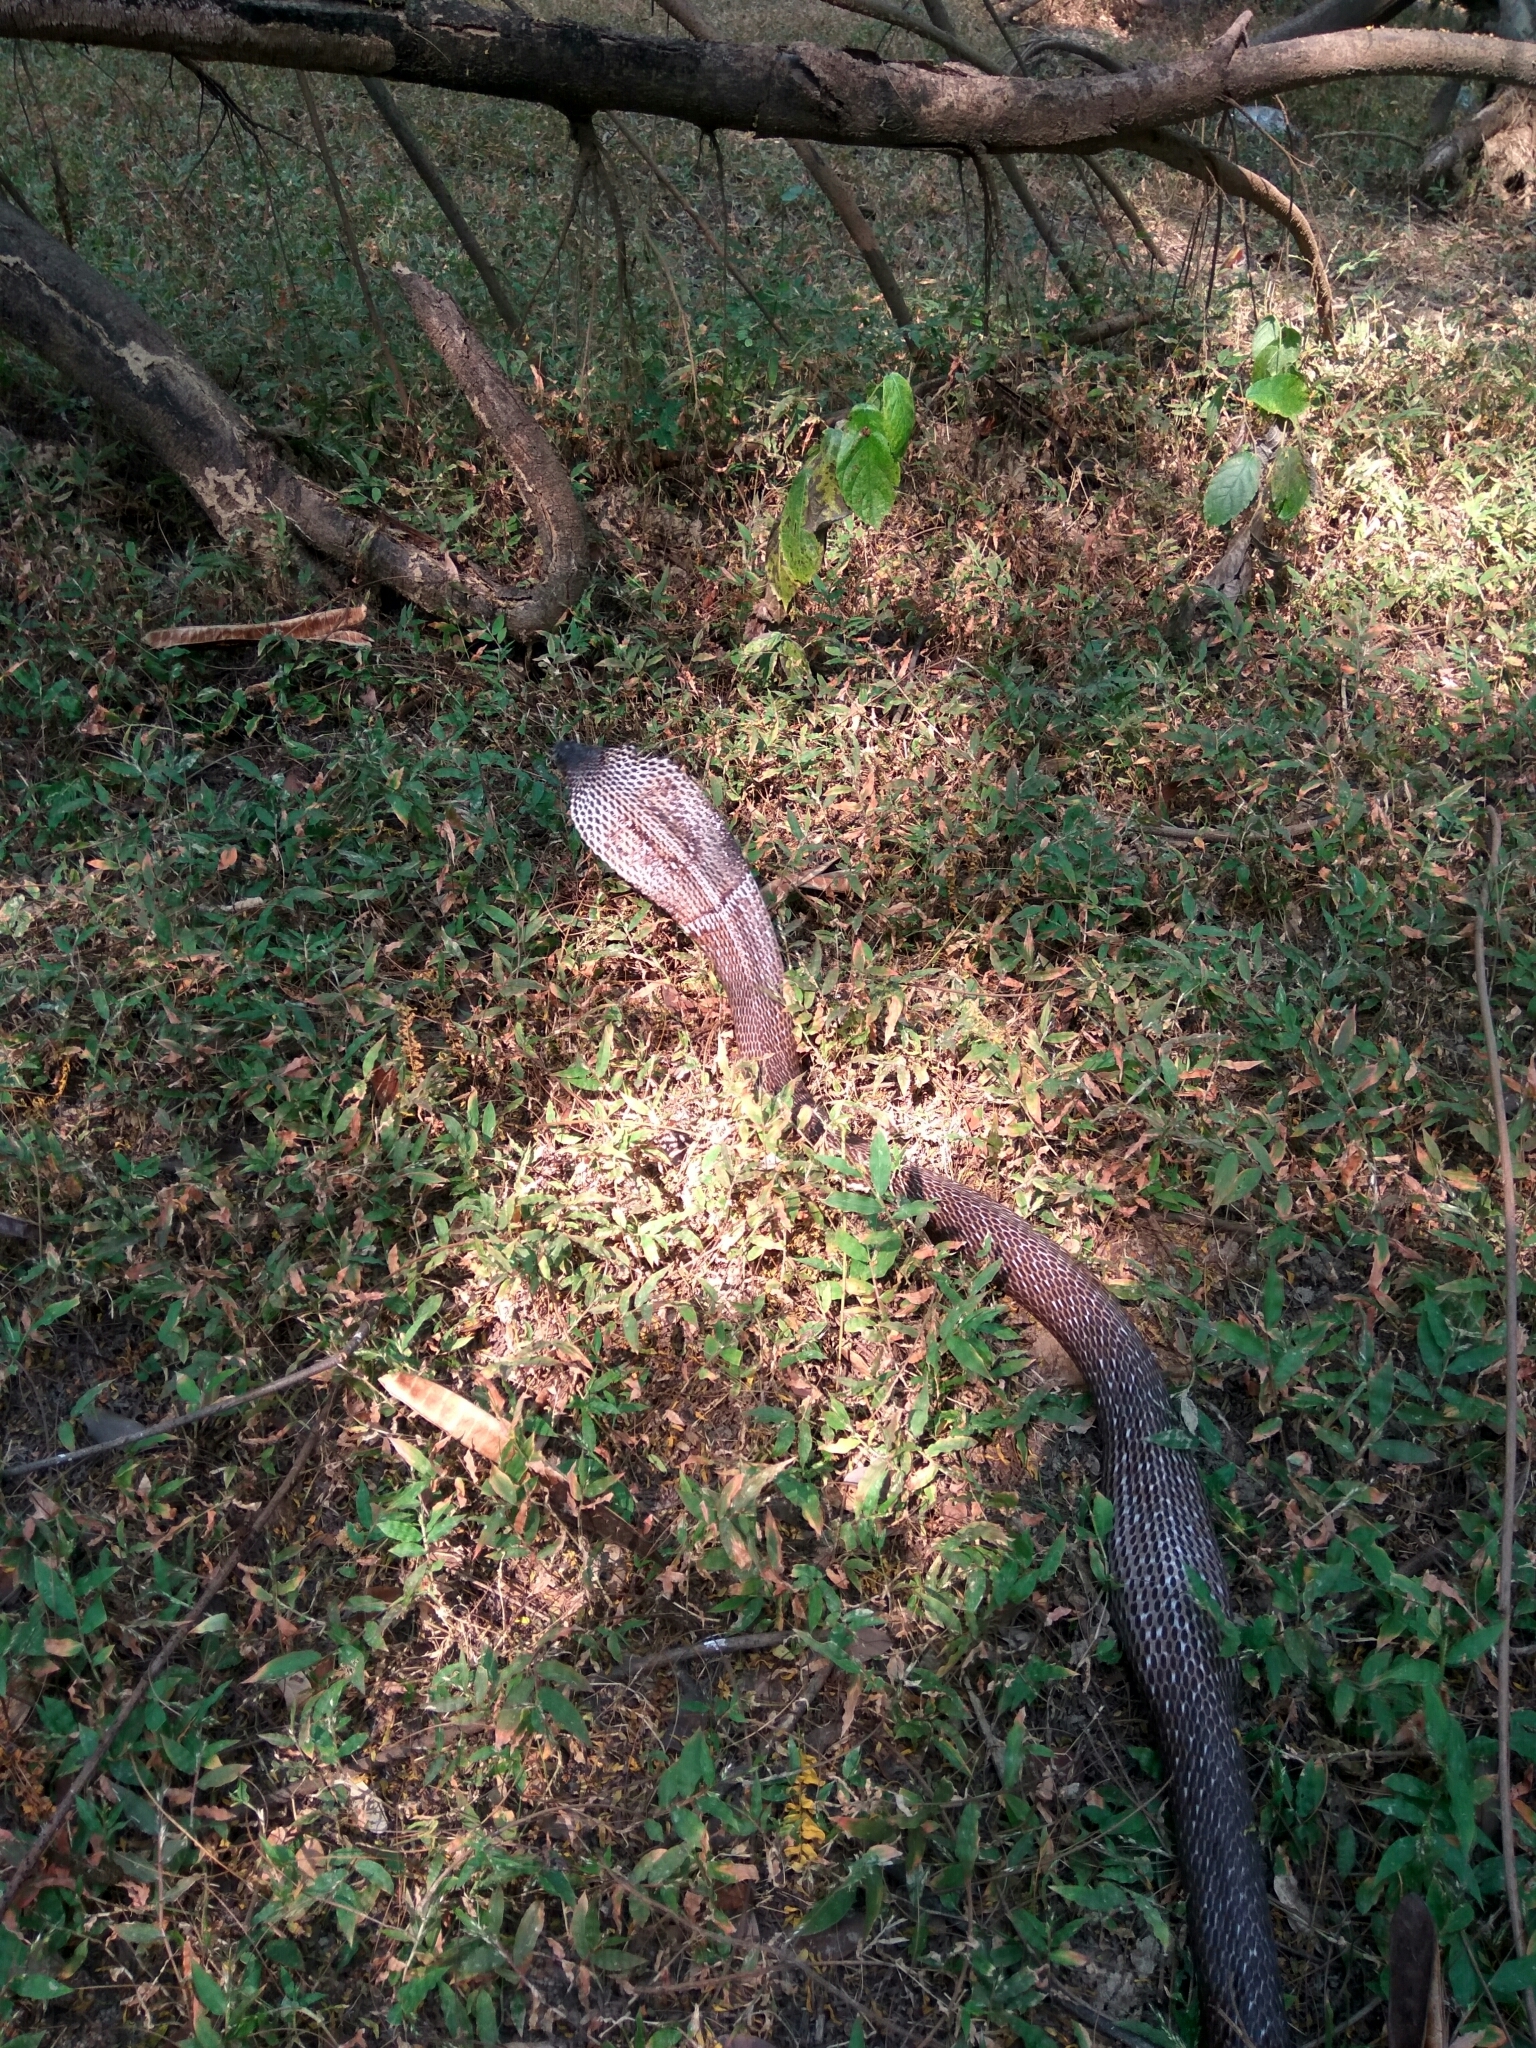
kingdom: Animalia
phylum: Chordata
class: Squamata
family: Elapidae
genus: Naja
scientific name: Naja naja
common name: Indian cobra
